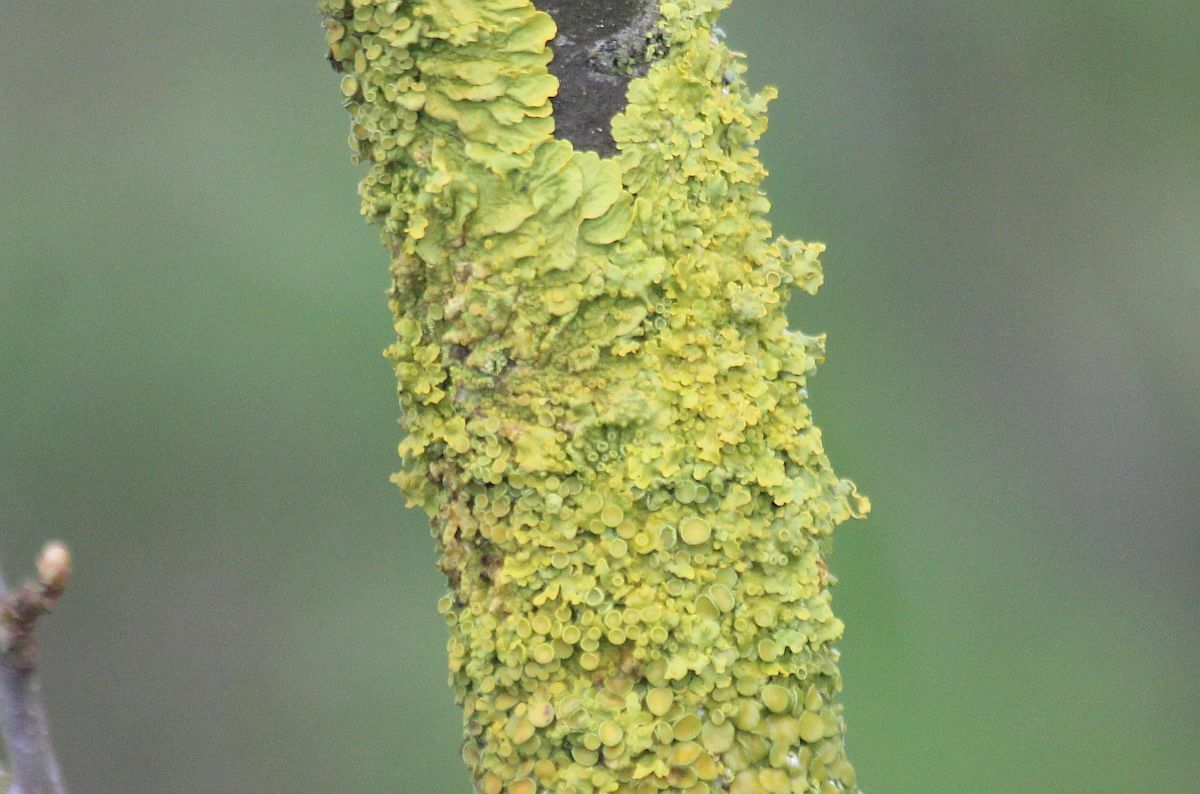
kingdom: Fungi
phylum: Ascomycota
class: Lecanoromycetes
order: Teloschistales
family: Teloschistaceae
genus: Xanthoria
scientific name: Xanthoria parietina
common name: Common orange lichen
